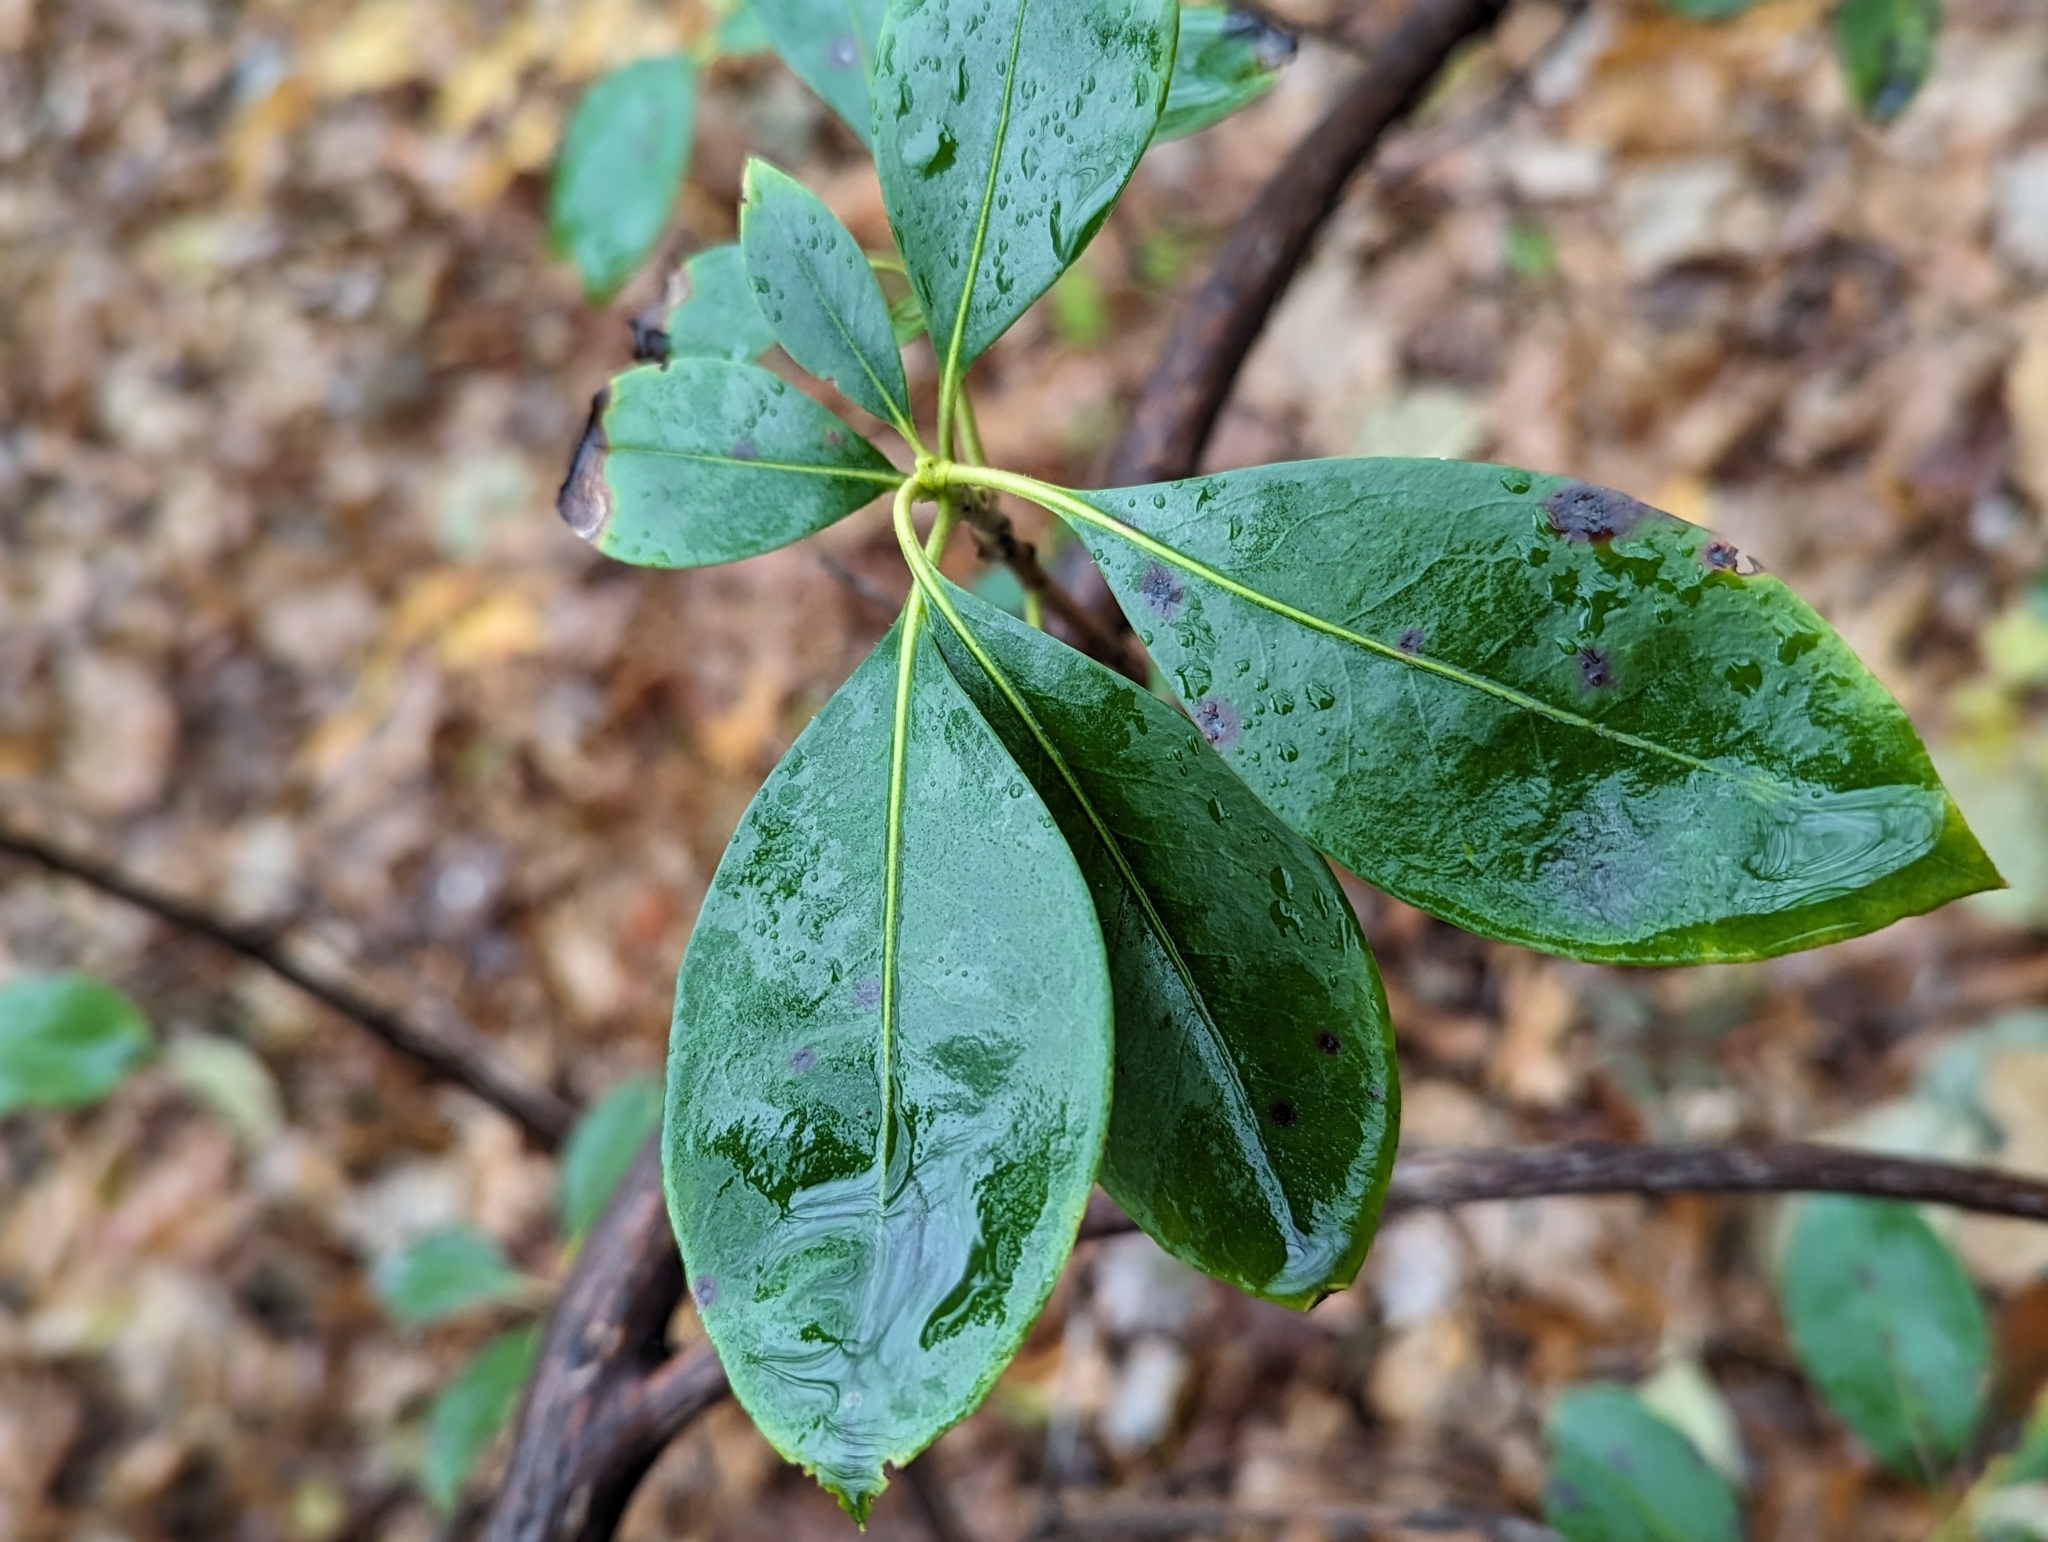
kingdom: Plantae
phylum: Tracheophyta
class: Magnoliopsida
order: Ericales
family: Ericaceae
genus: Kalmia
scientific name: Kalmia latifolia
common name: Mountain-laurel
